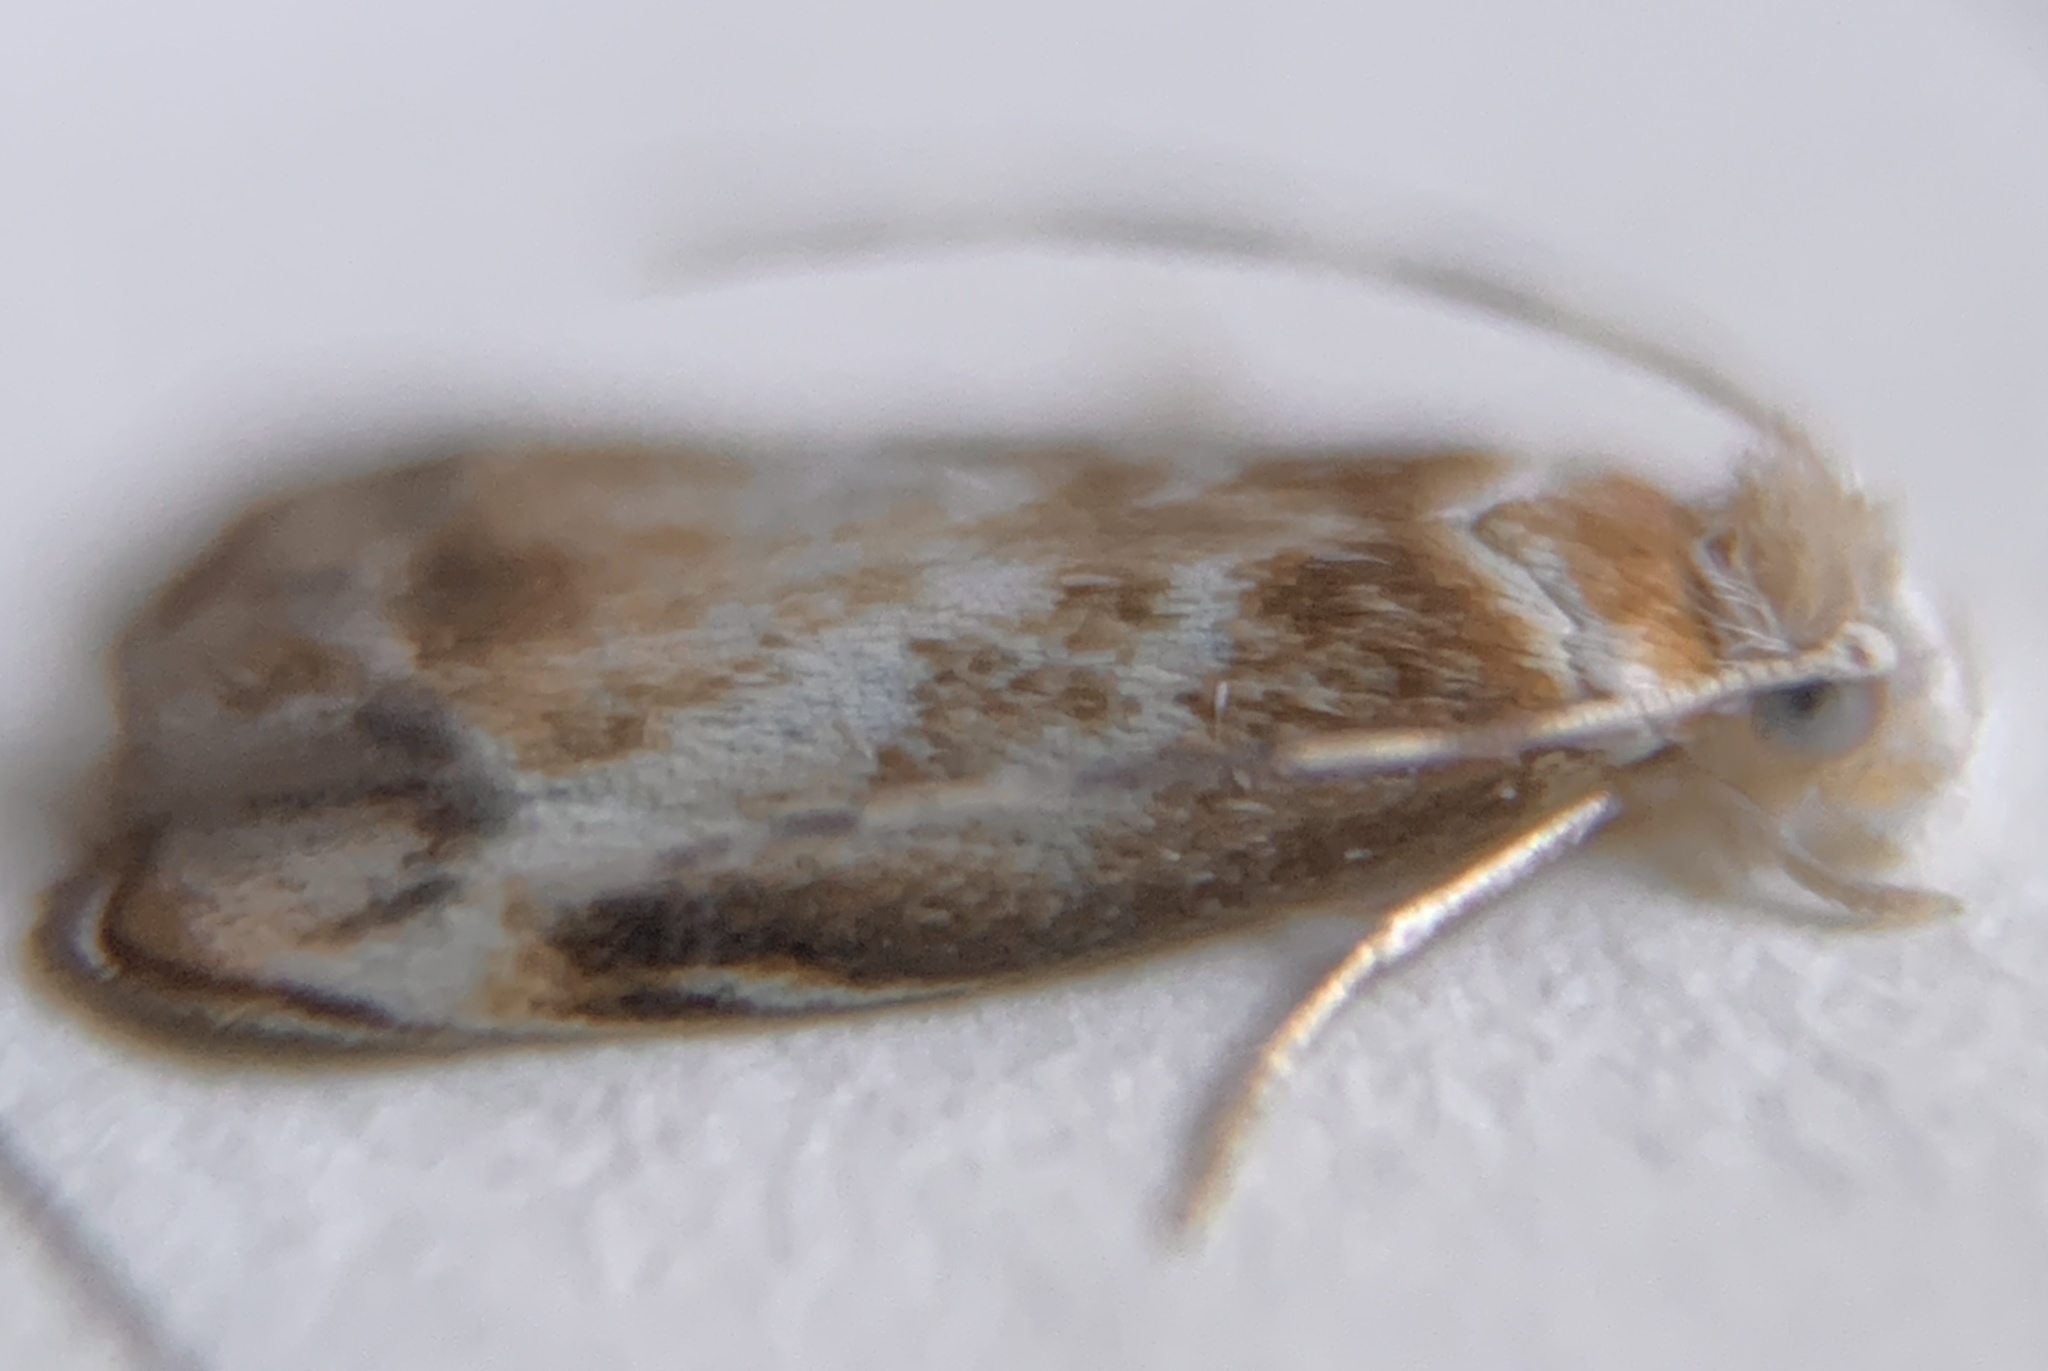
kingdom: Animalia
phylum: Arthropoda
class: Insecta
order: Lepidoptera
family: Dryadaulidae
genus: Dryadaula
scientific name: Dryadaula terpsichorella
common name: Dancing moth
